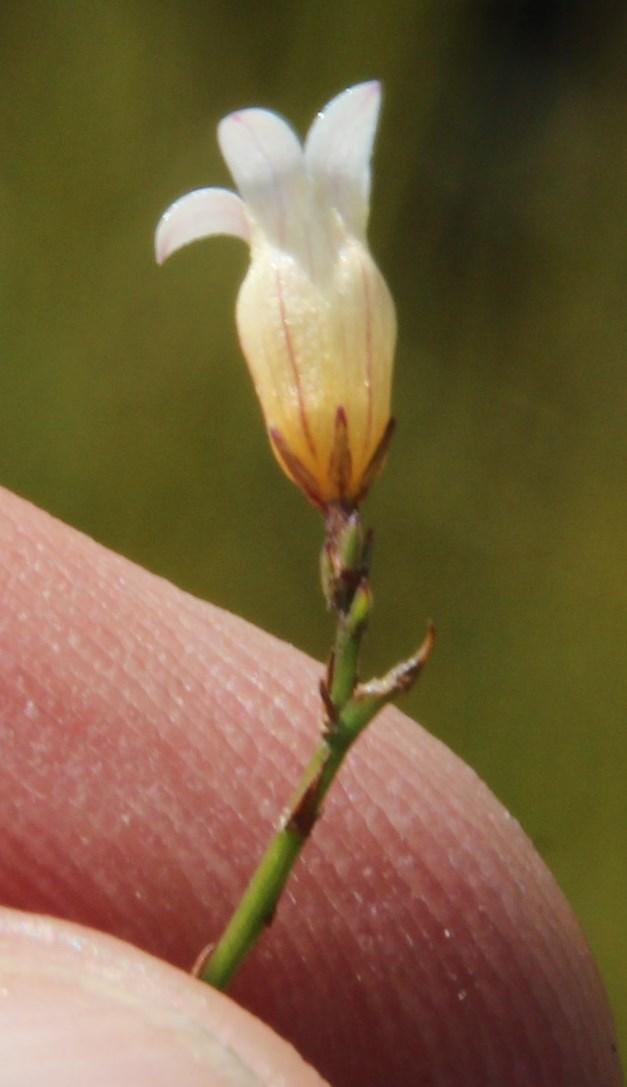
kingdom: Plantae
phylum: Tracheophyta
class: Magnoliopsida
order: Asterales
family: Campanulaceae
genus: Siphocodon
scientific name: Siphocodon debilis
